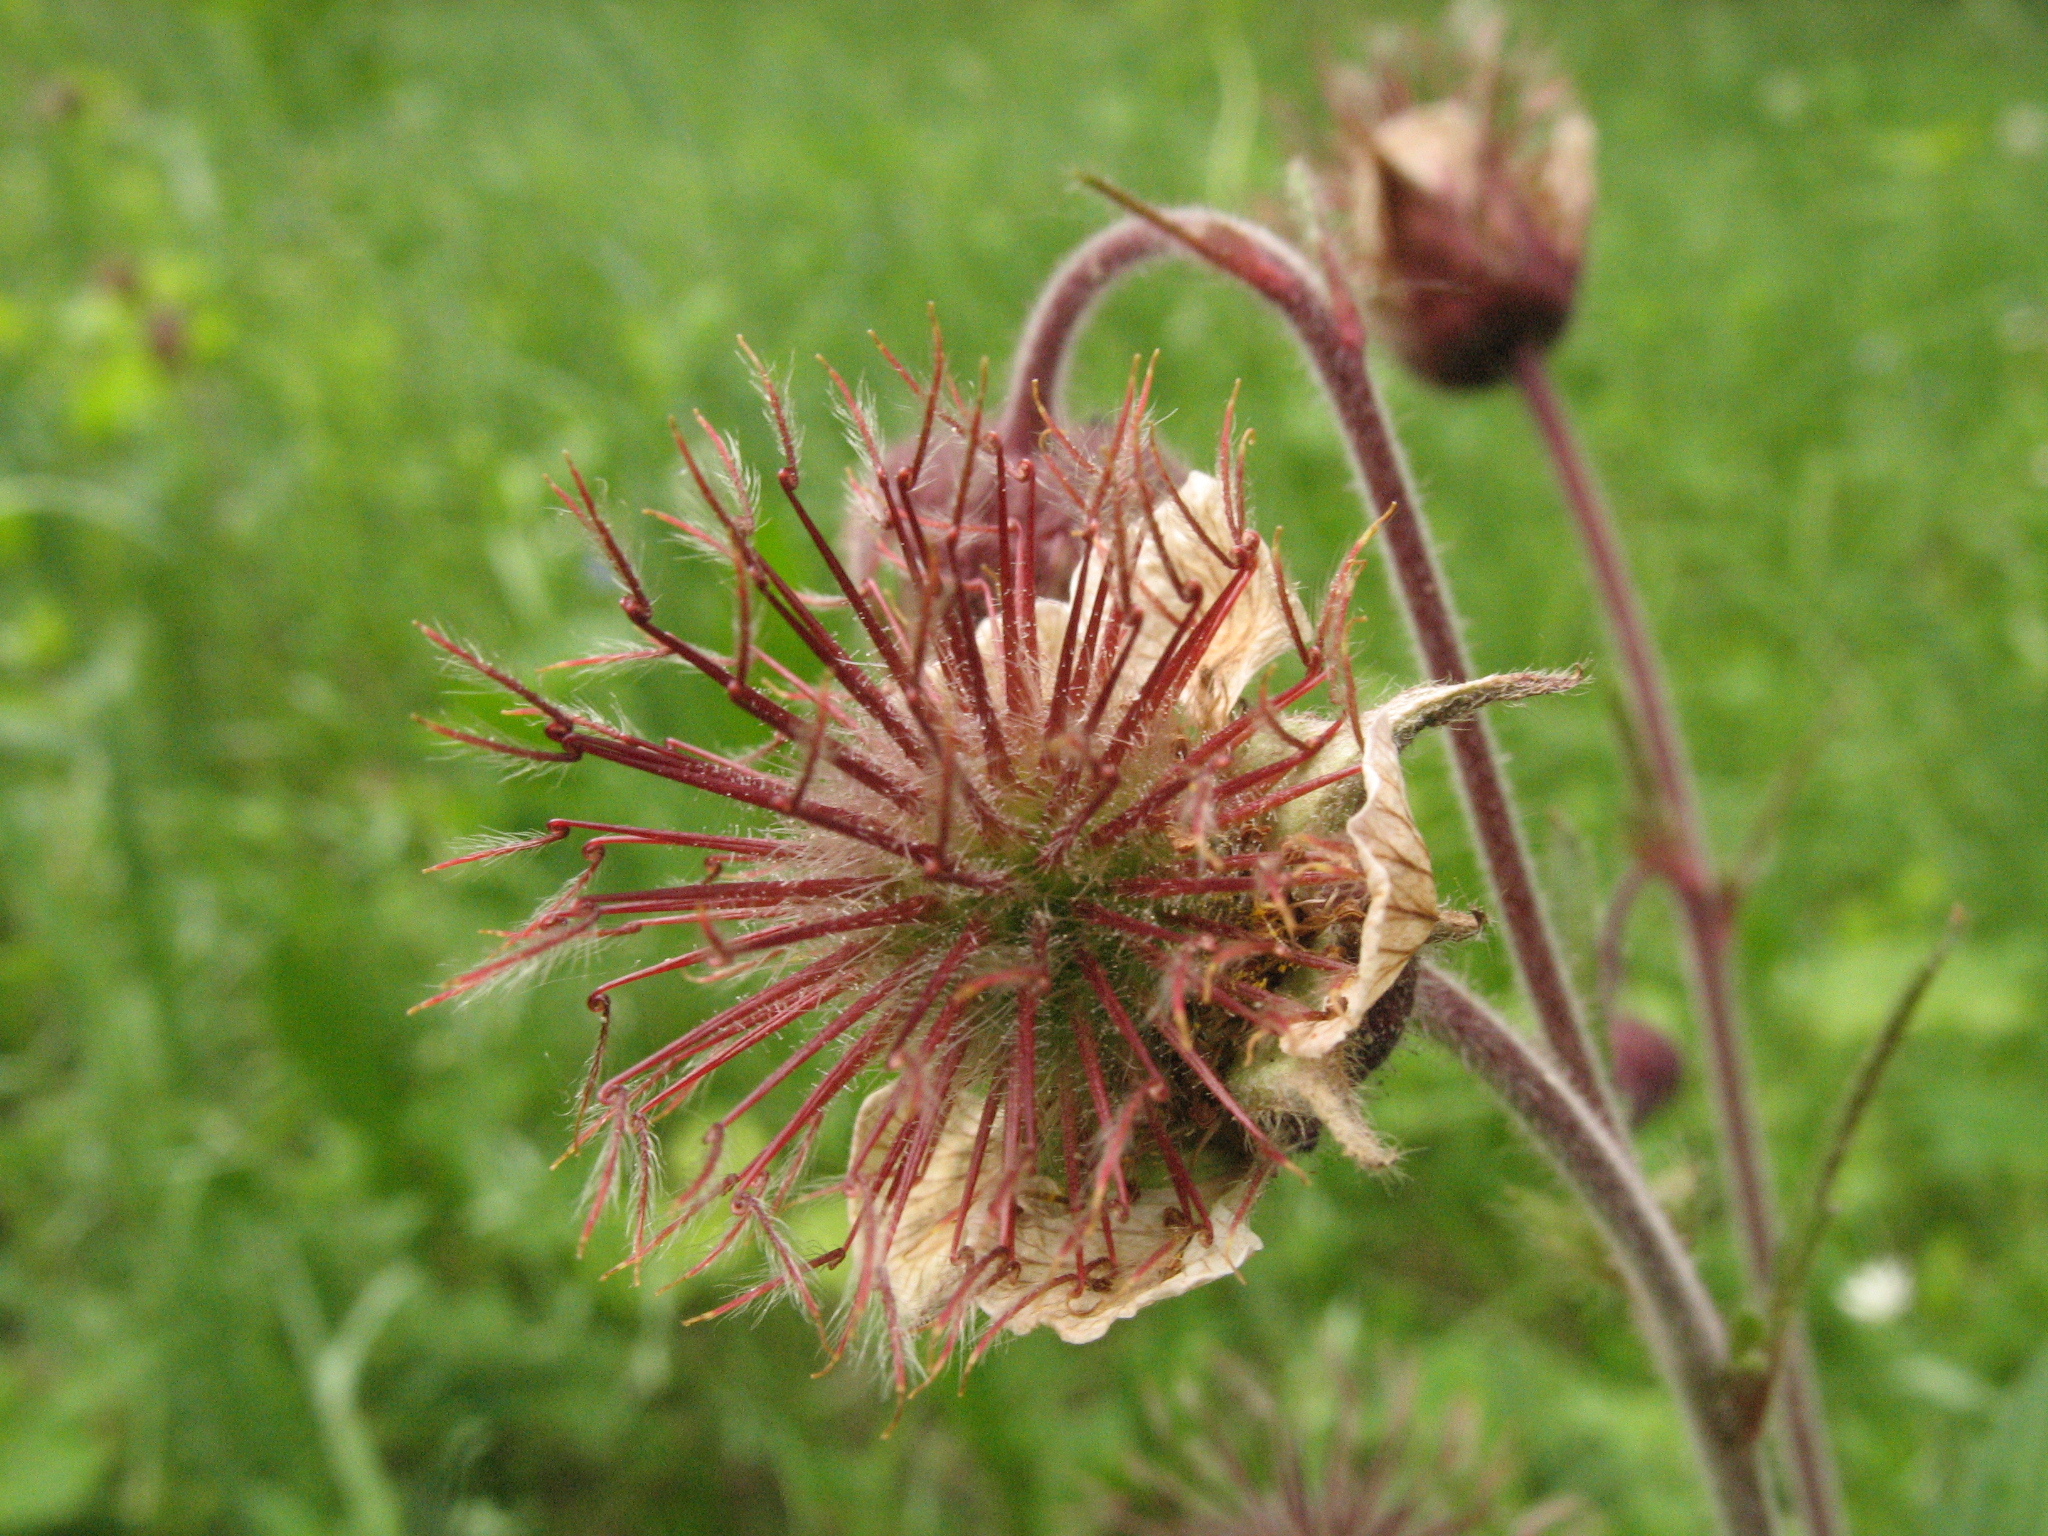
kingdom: Plantae
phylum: Tracheophyta
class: Magnoliopsida
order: Rosales
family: Rosaceae
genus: Geum
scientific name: Geum rivale
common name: Water avens
